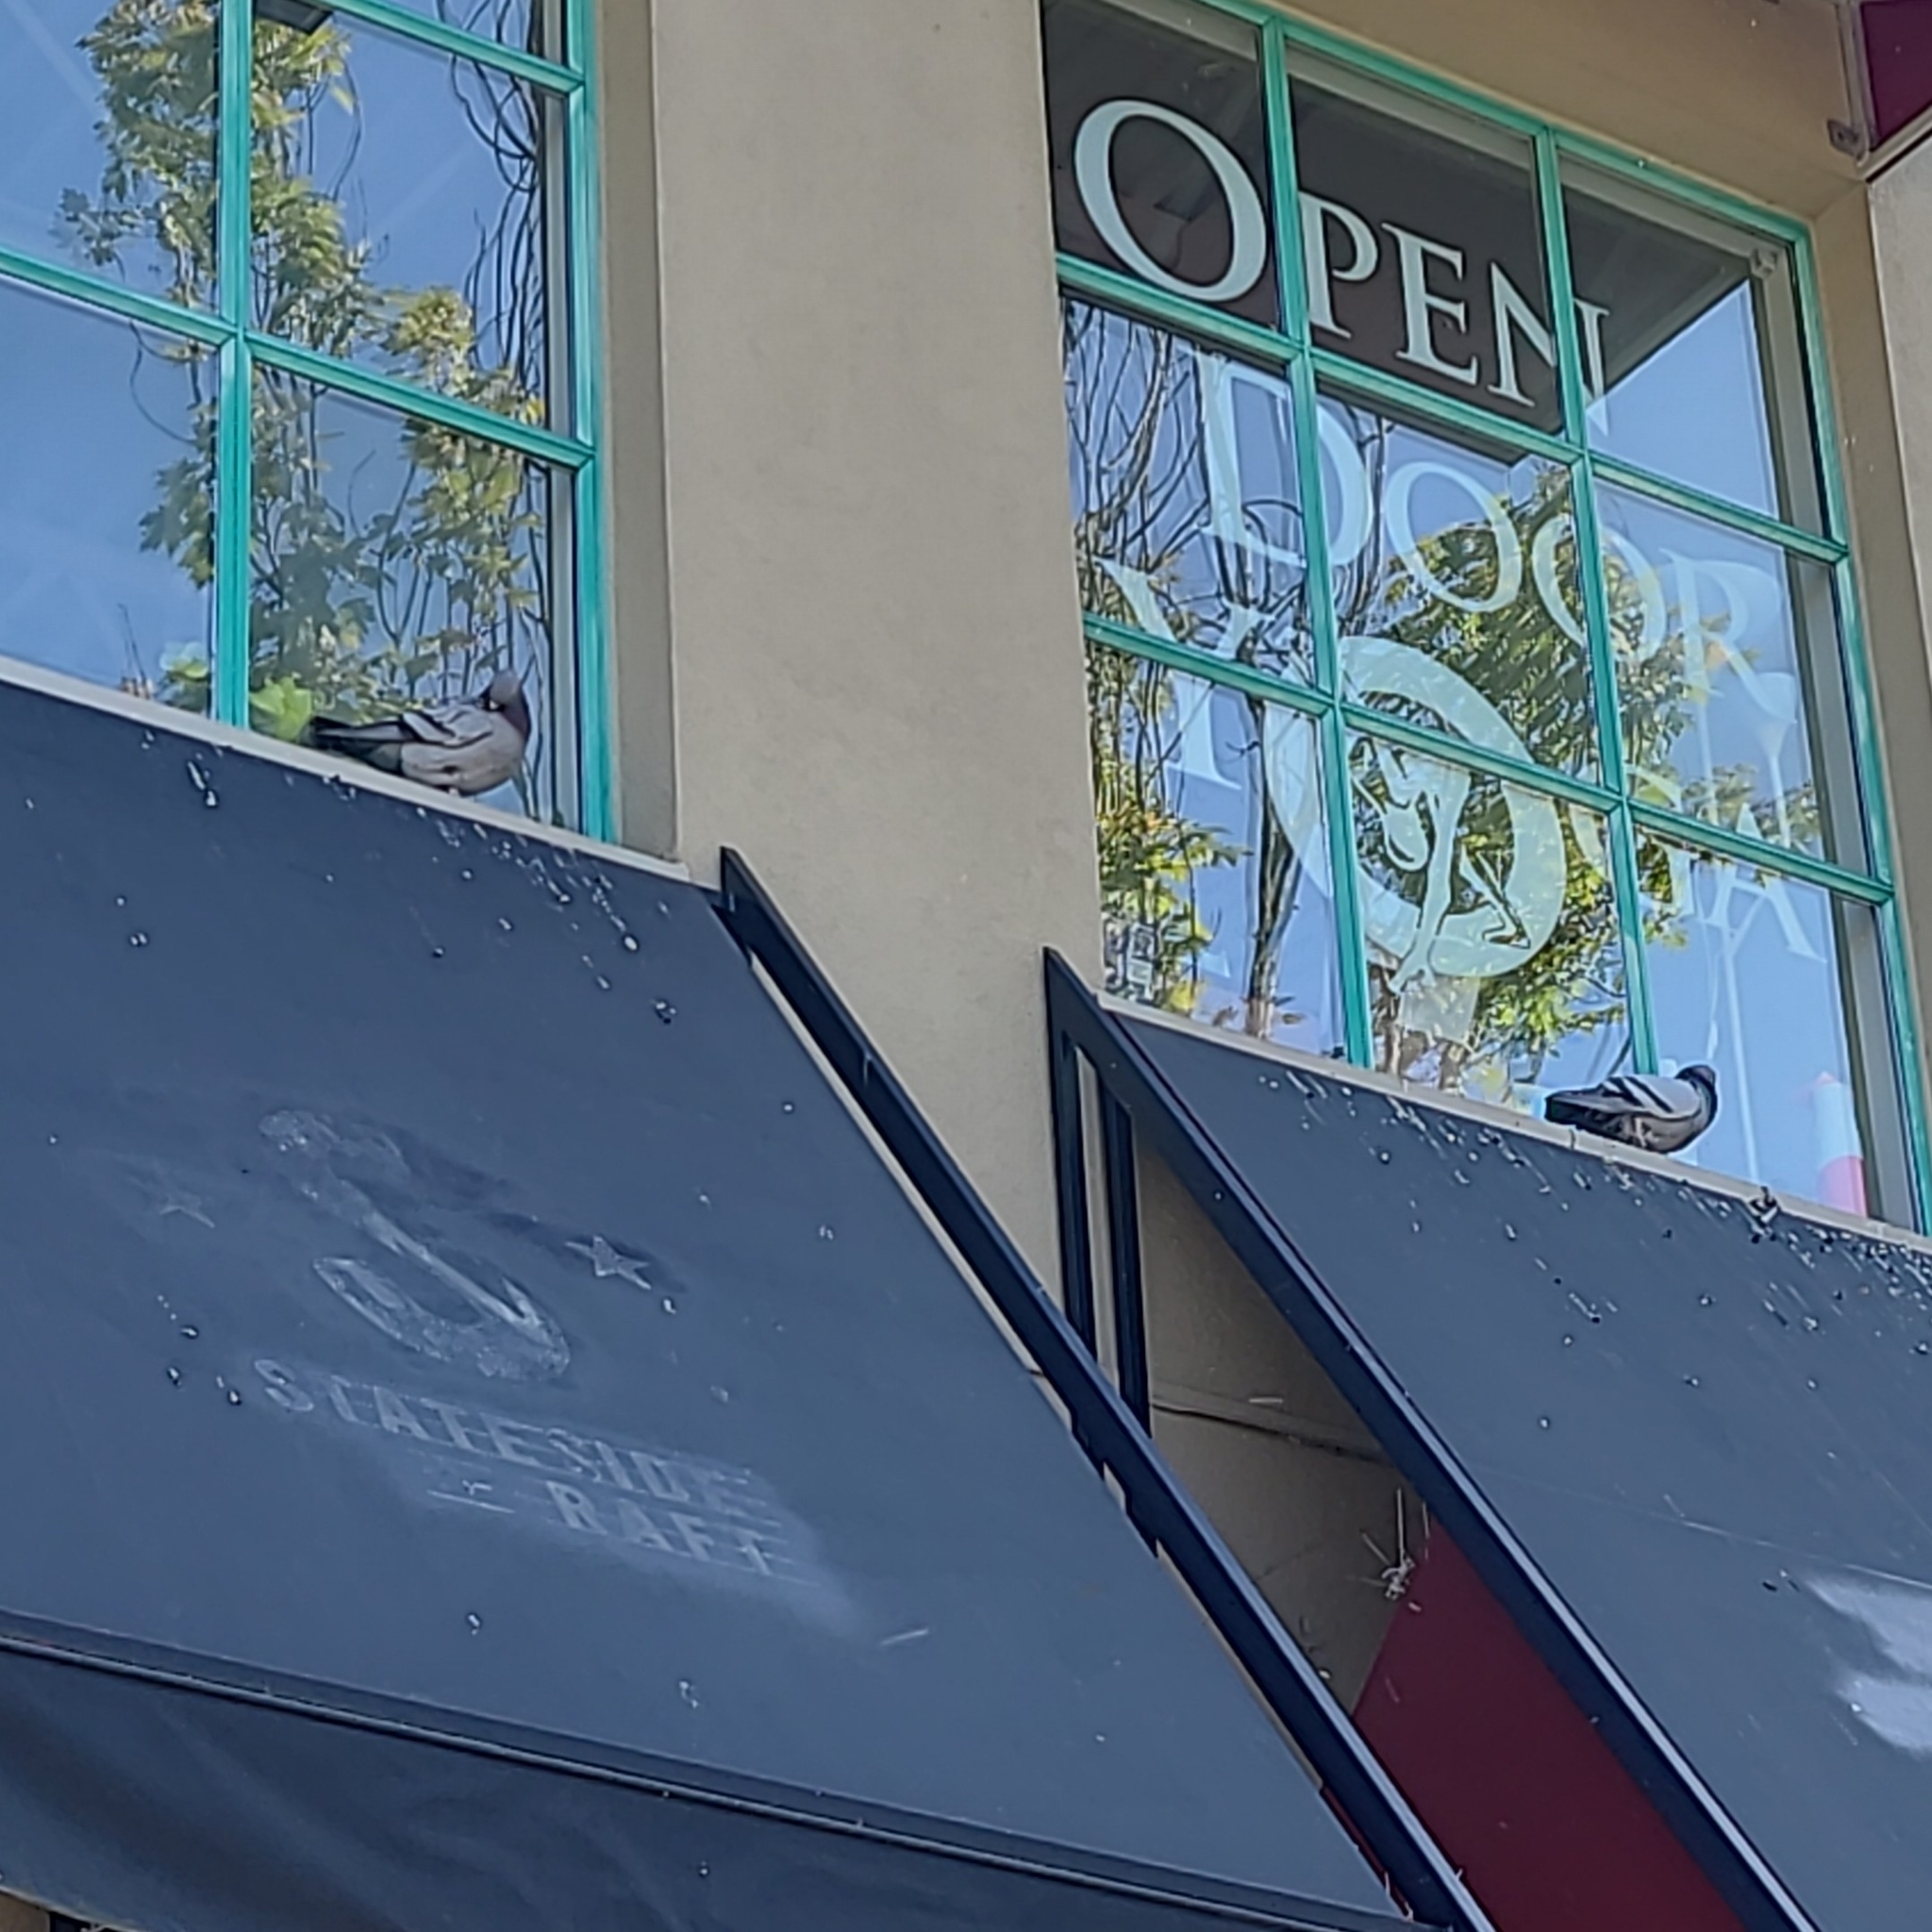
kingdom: Animalia
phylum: Chordata
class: Aves
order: Columbiformes
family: Columbidae
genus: Columba
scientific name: Columba livia
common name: Rock pigeon
